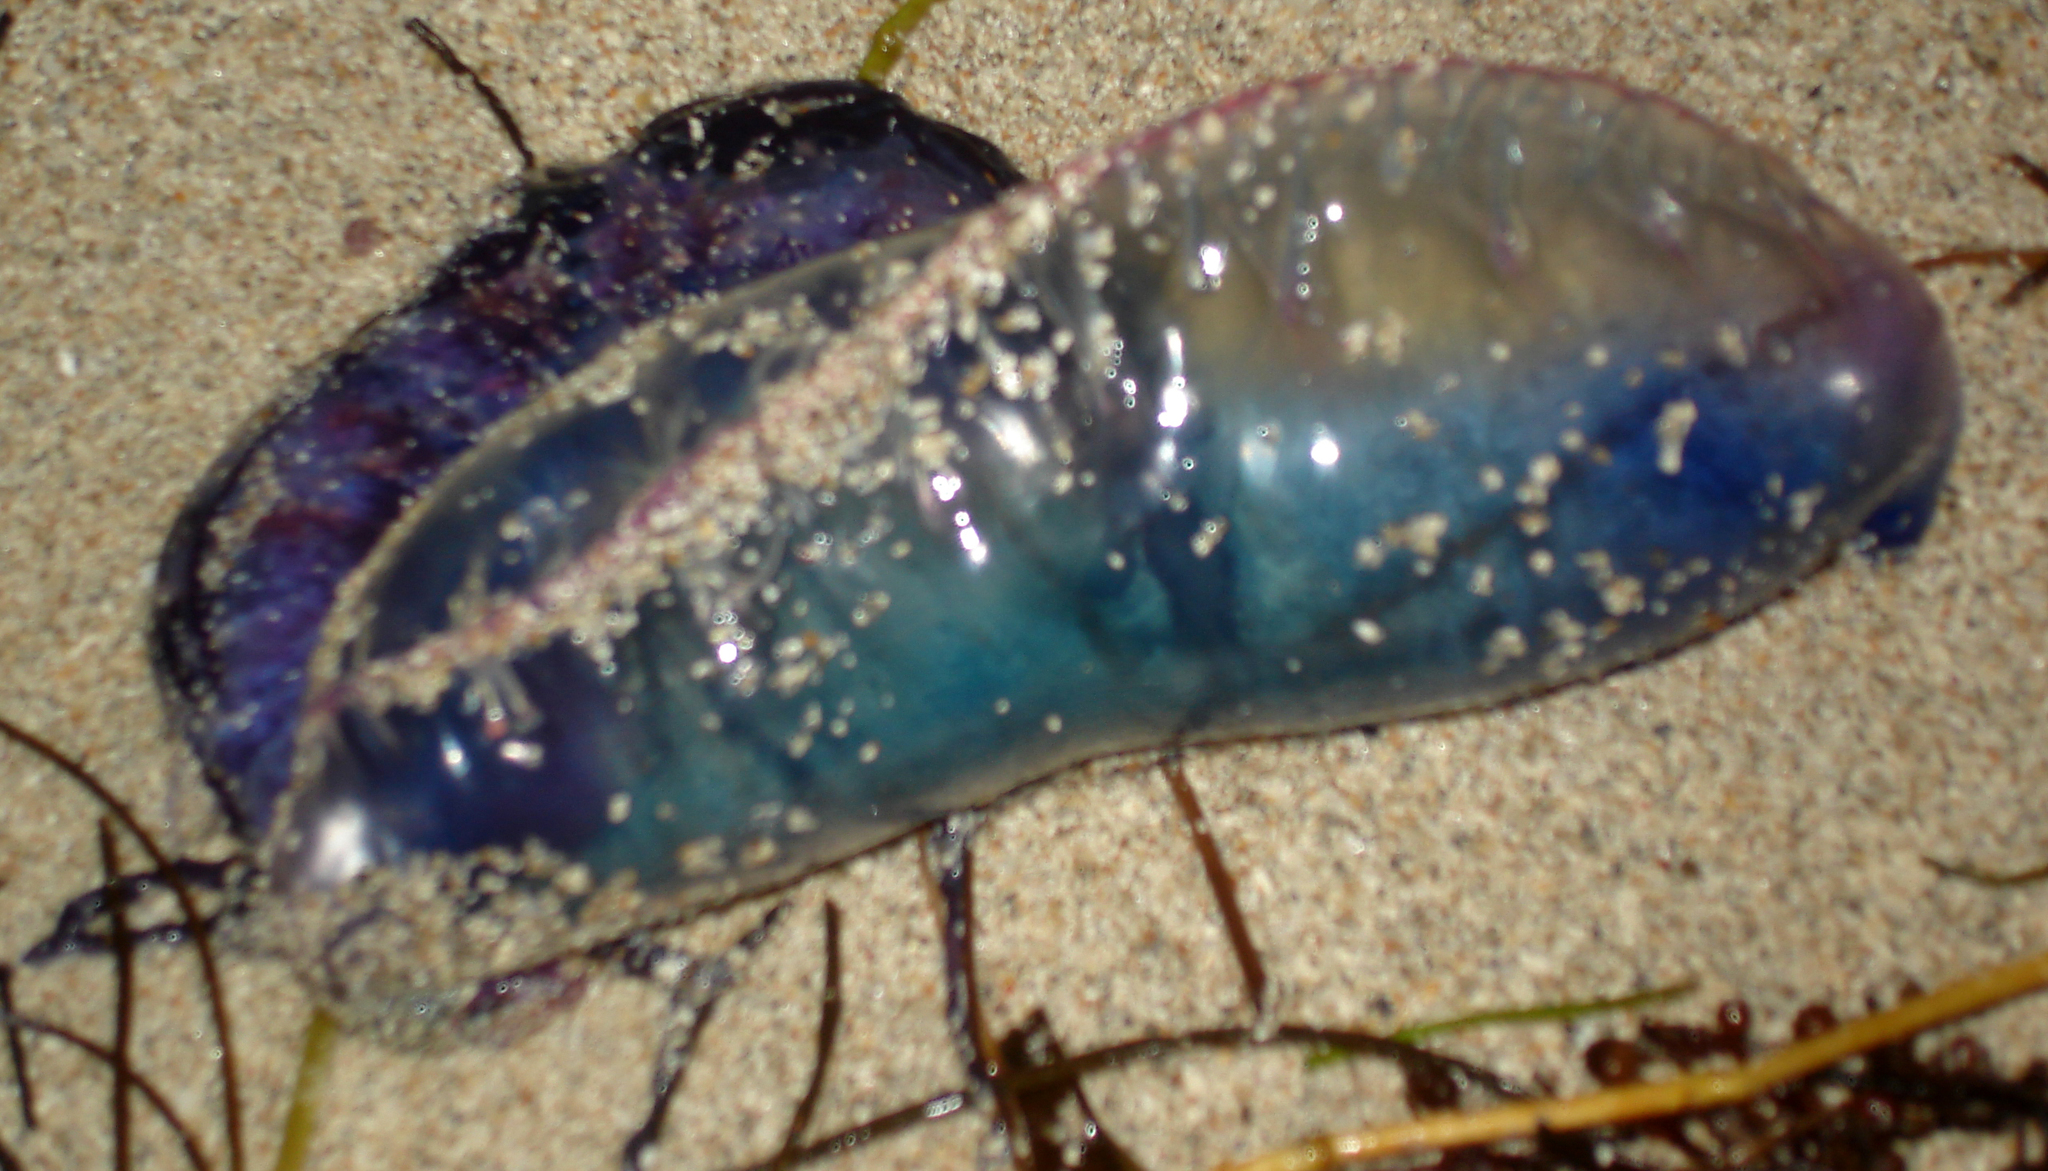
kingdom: Animalia
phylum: Cnidaria
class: Hydrozoa
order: Siphonophorae
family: Physaliidae
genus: Physalia
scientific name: Physalia physalis
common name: Portuguese man-of-war
